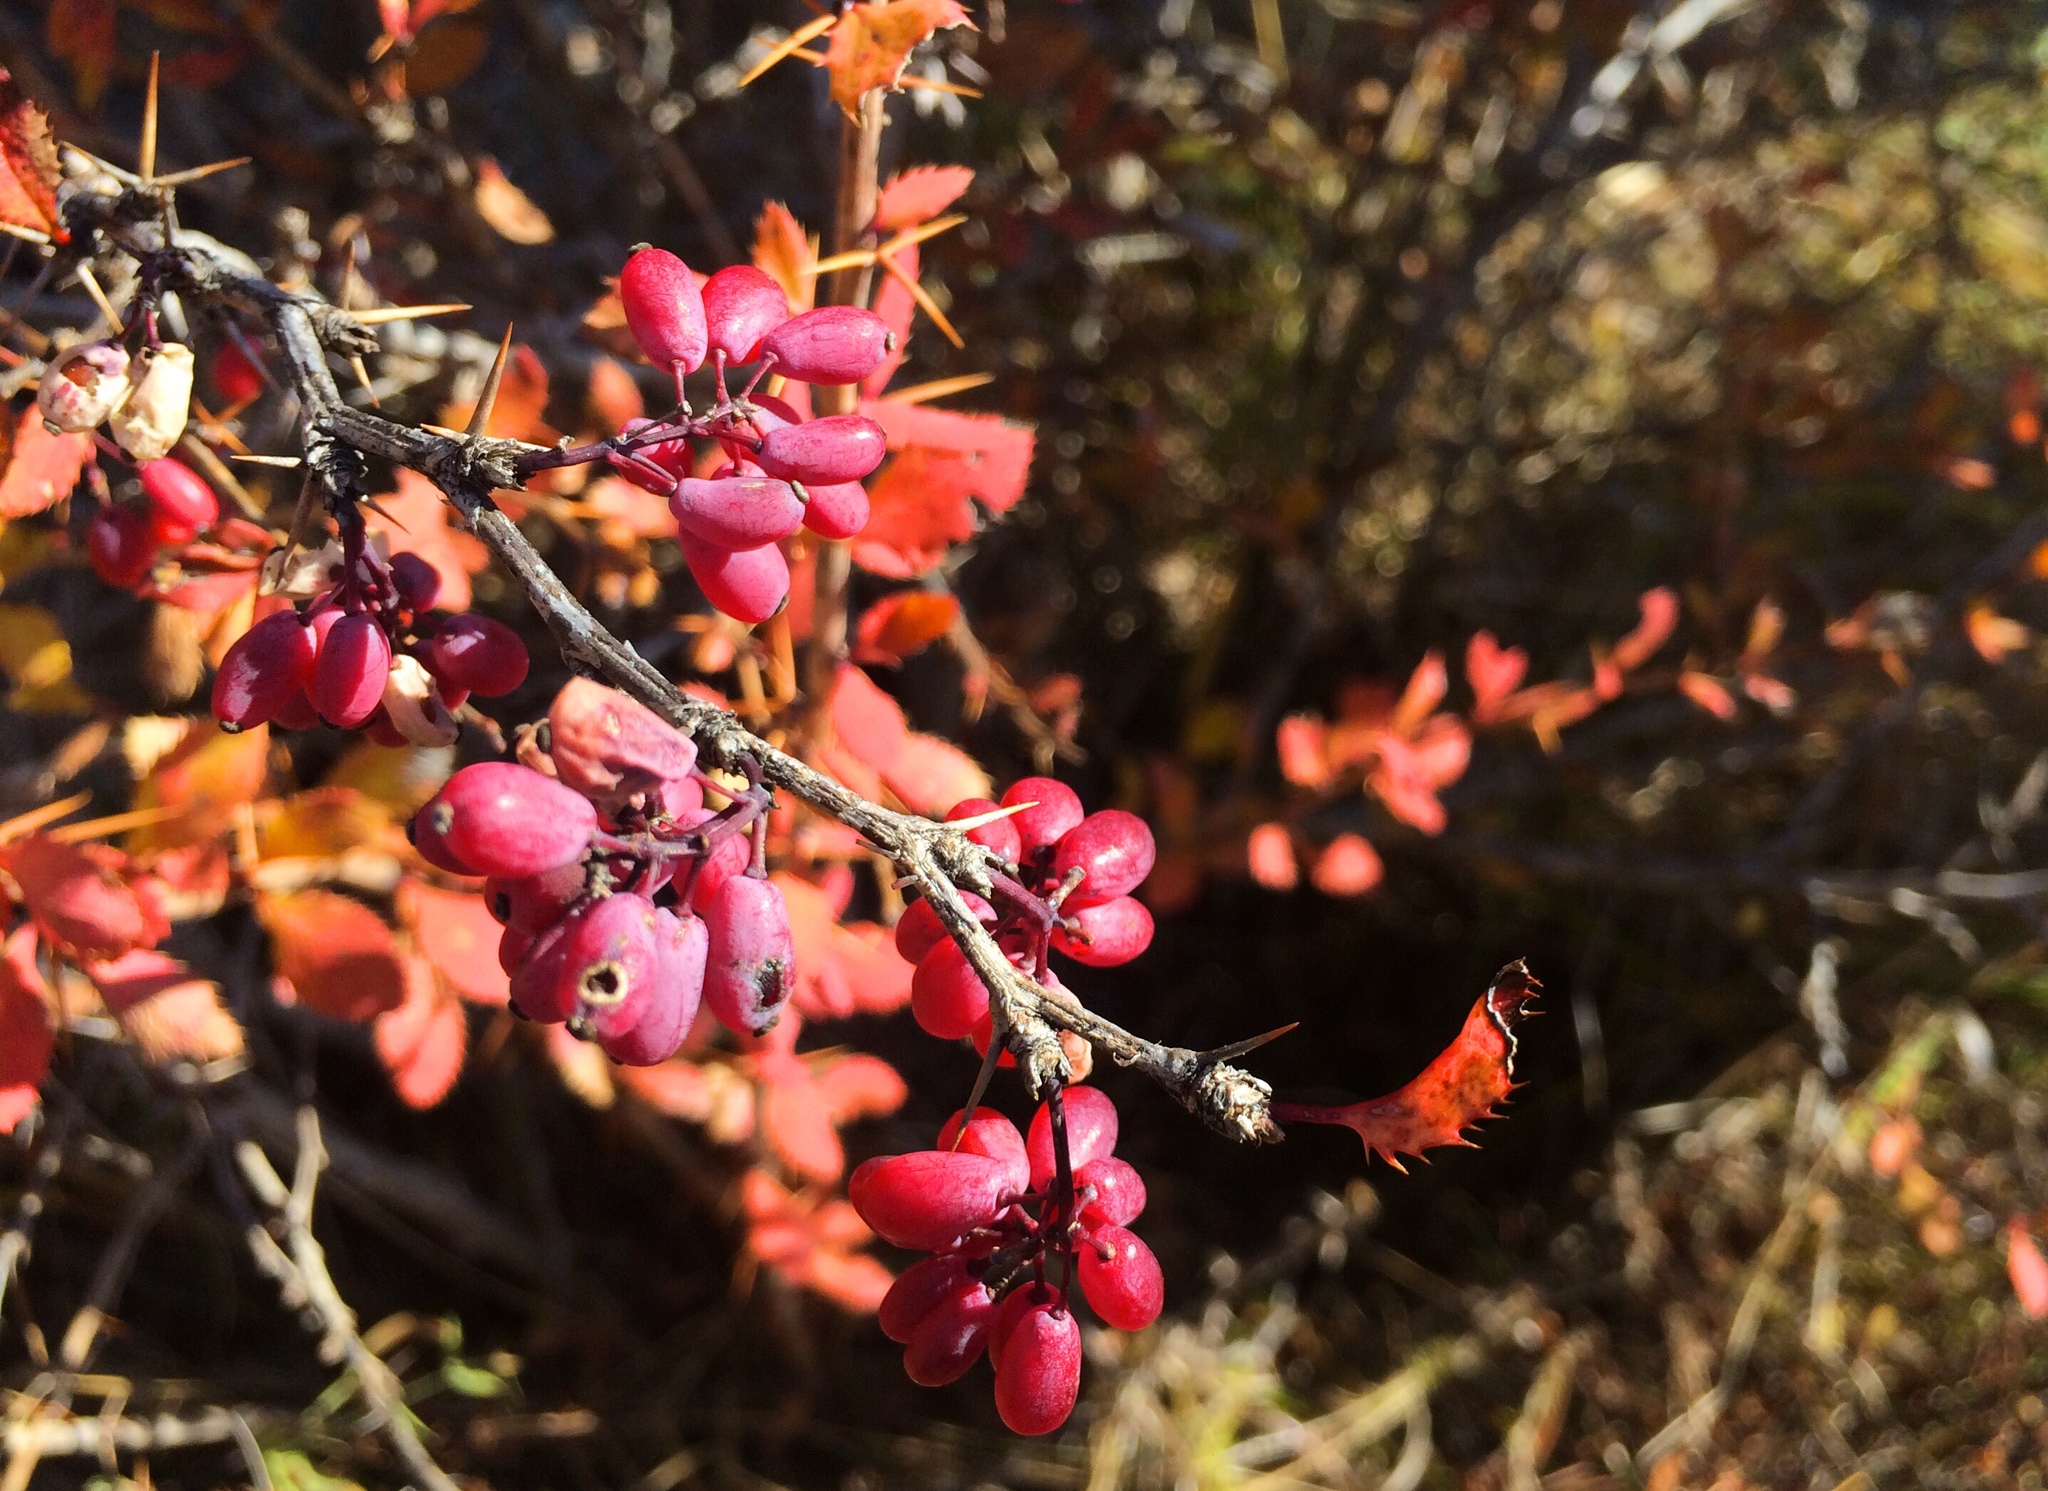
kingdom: Plantae
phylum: Tracheophyta
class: Magnoliopsida
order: Ranunculales
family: Berberidaceae
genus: Berberis
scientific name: Berberis vulgaris
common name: Barberry
